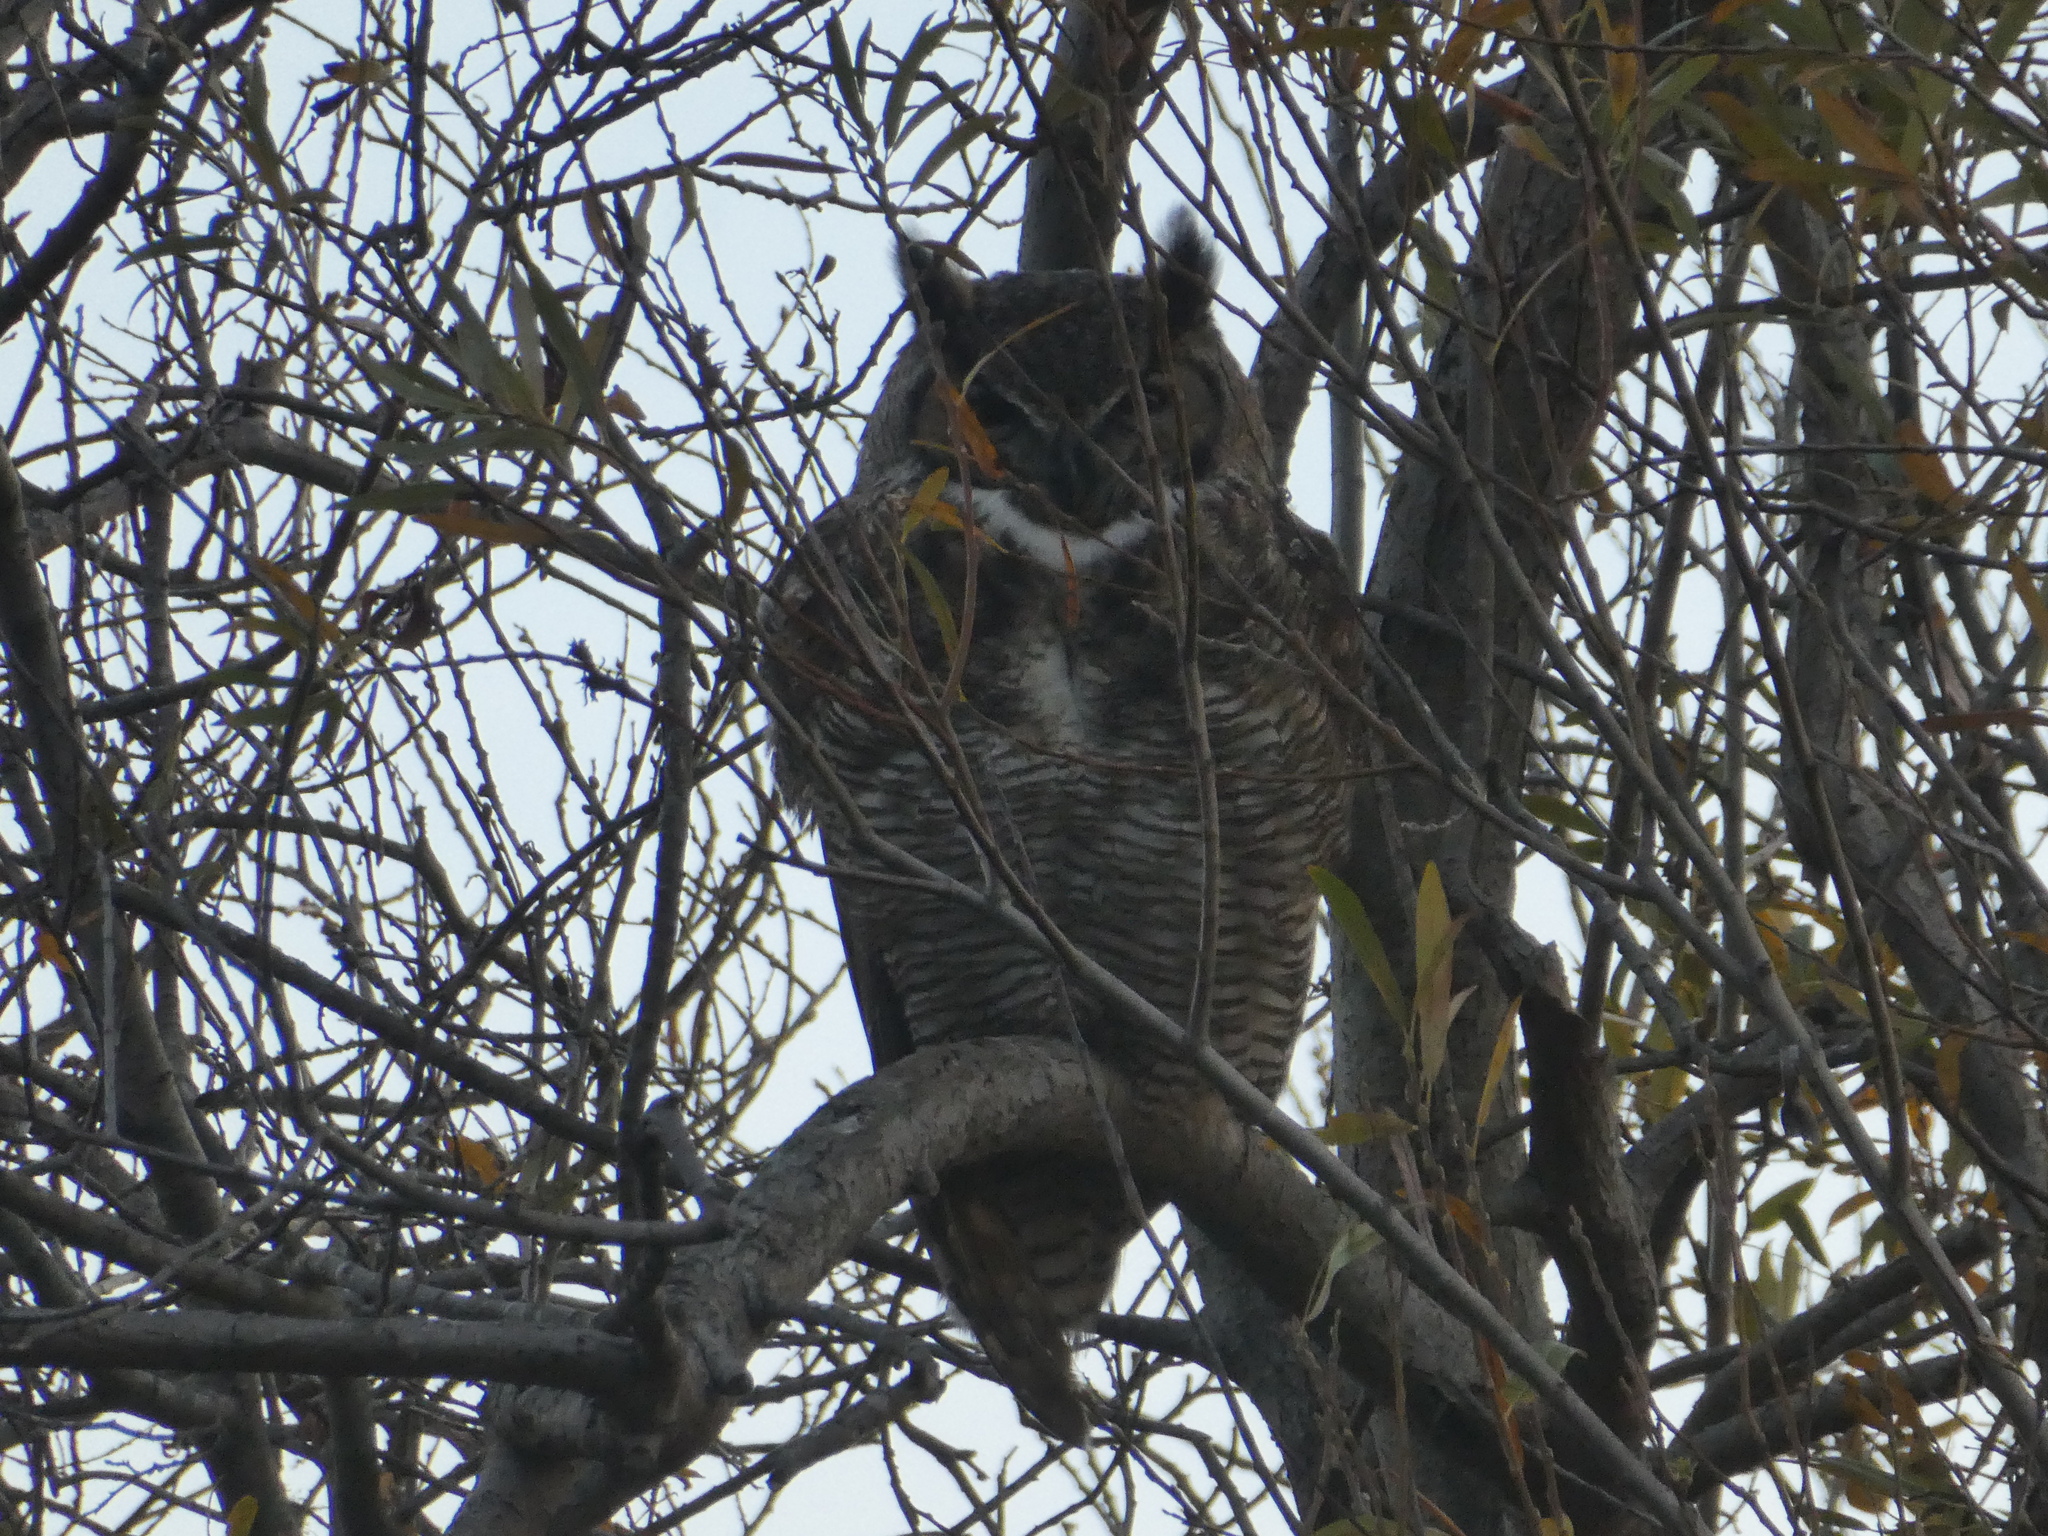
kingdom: Animalia
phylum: Chordata
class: Aves
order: Strigiformes
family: Strigidae
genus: Bubo
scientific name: Bubo virginianus
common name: Great horned owl
